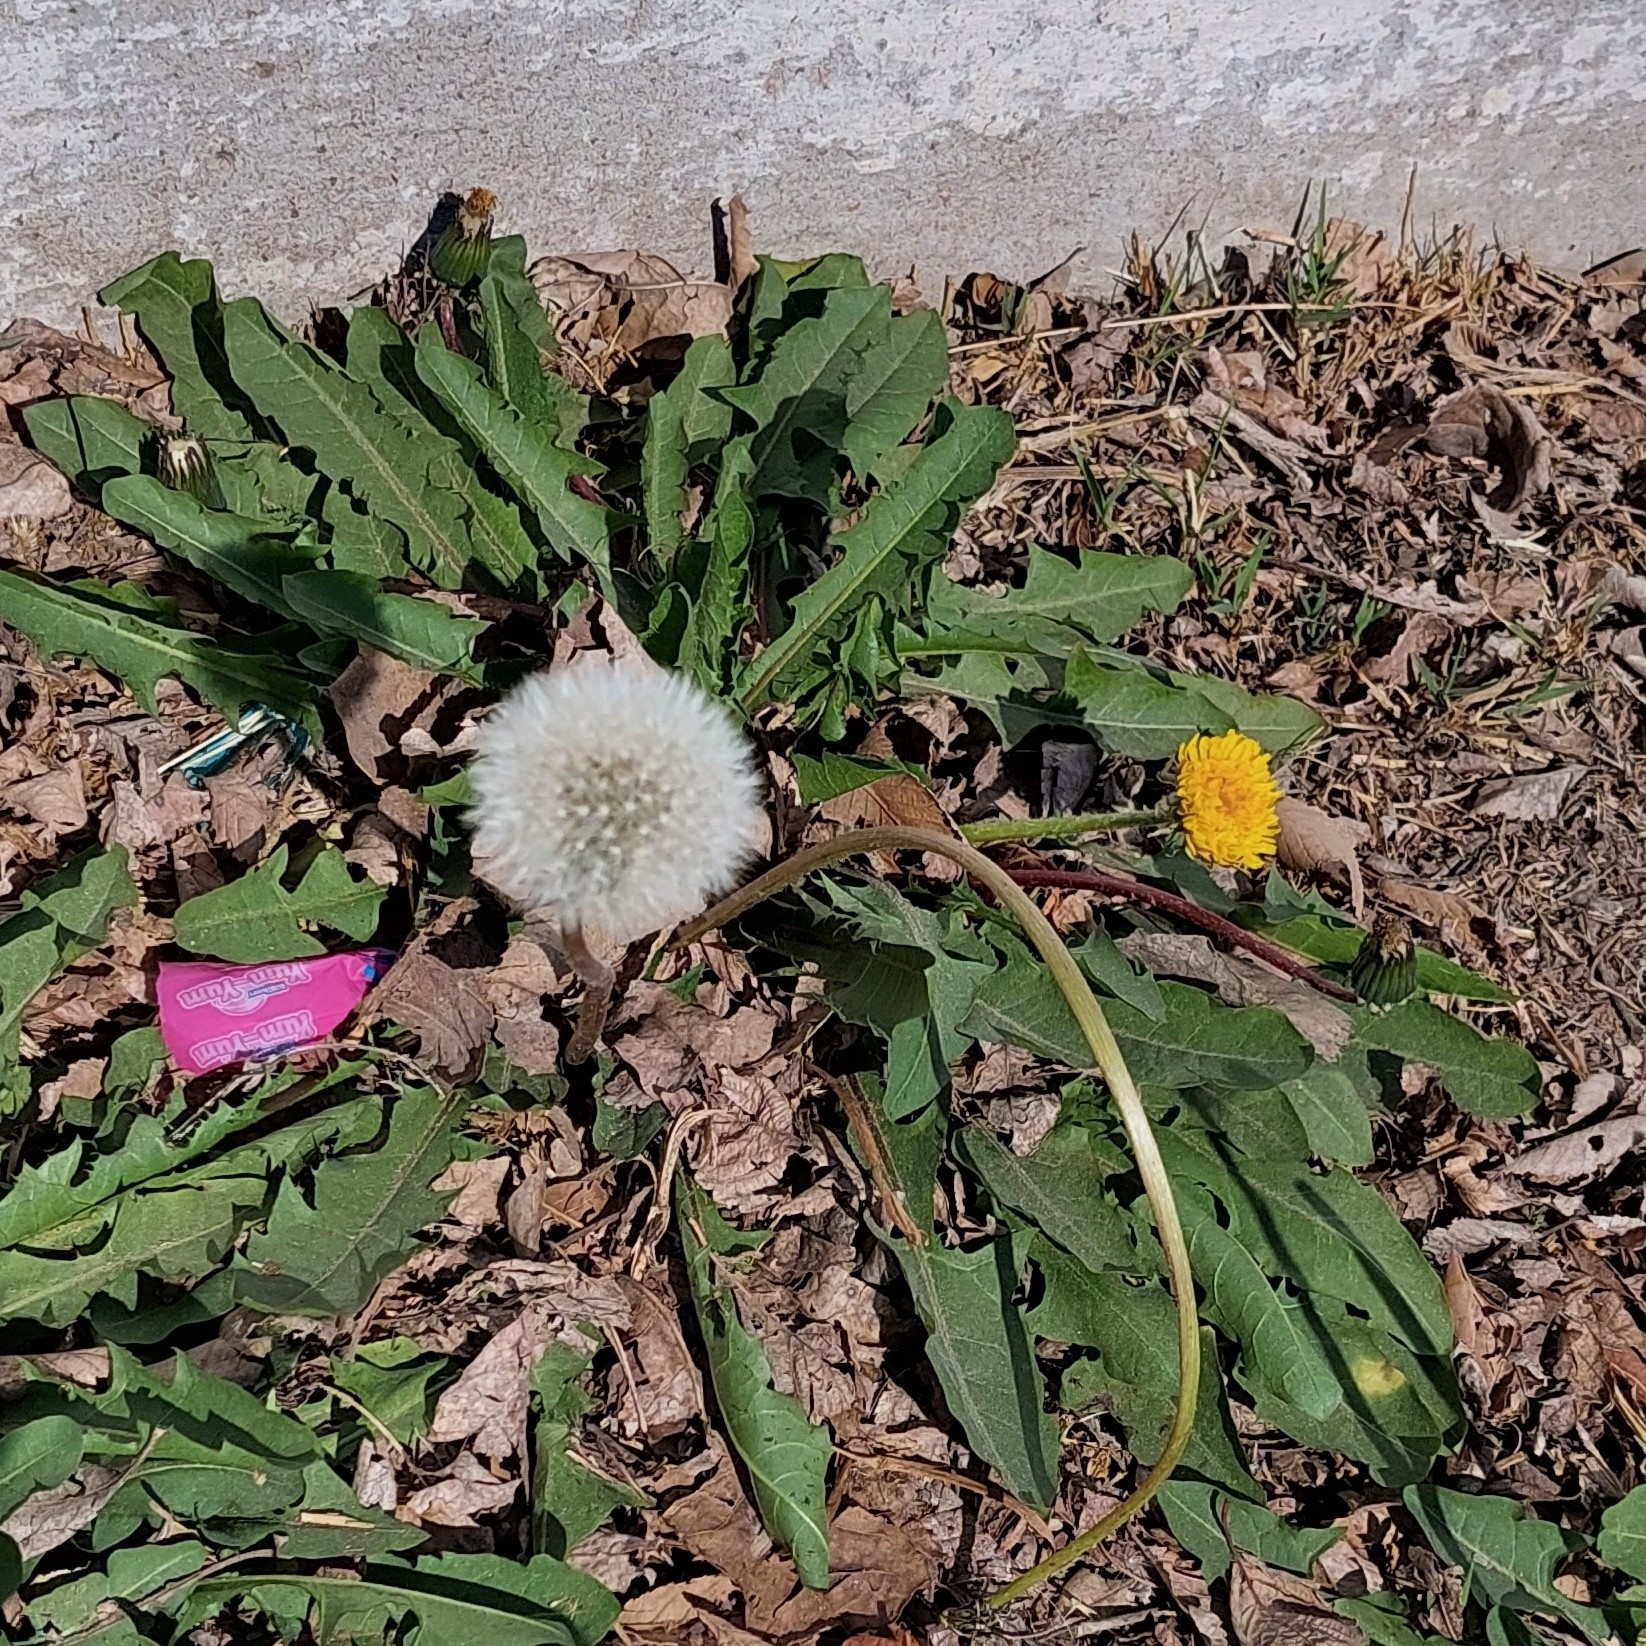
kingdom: Plantae
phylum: Tracheophyta
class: Magnoliopsida
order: Asterales
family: Asteraceae
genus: Taraxacum
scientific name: Taraxacum officinale
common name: Common dandelion
